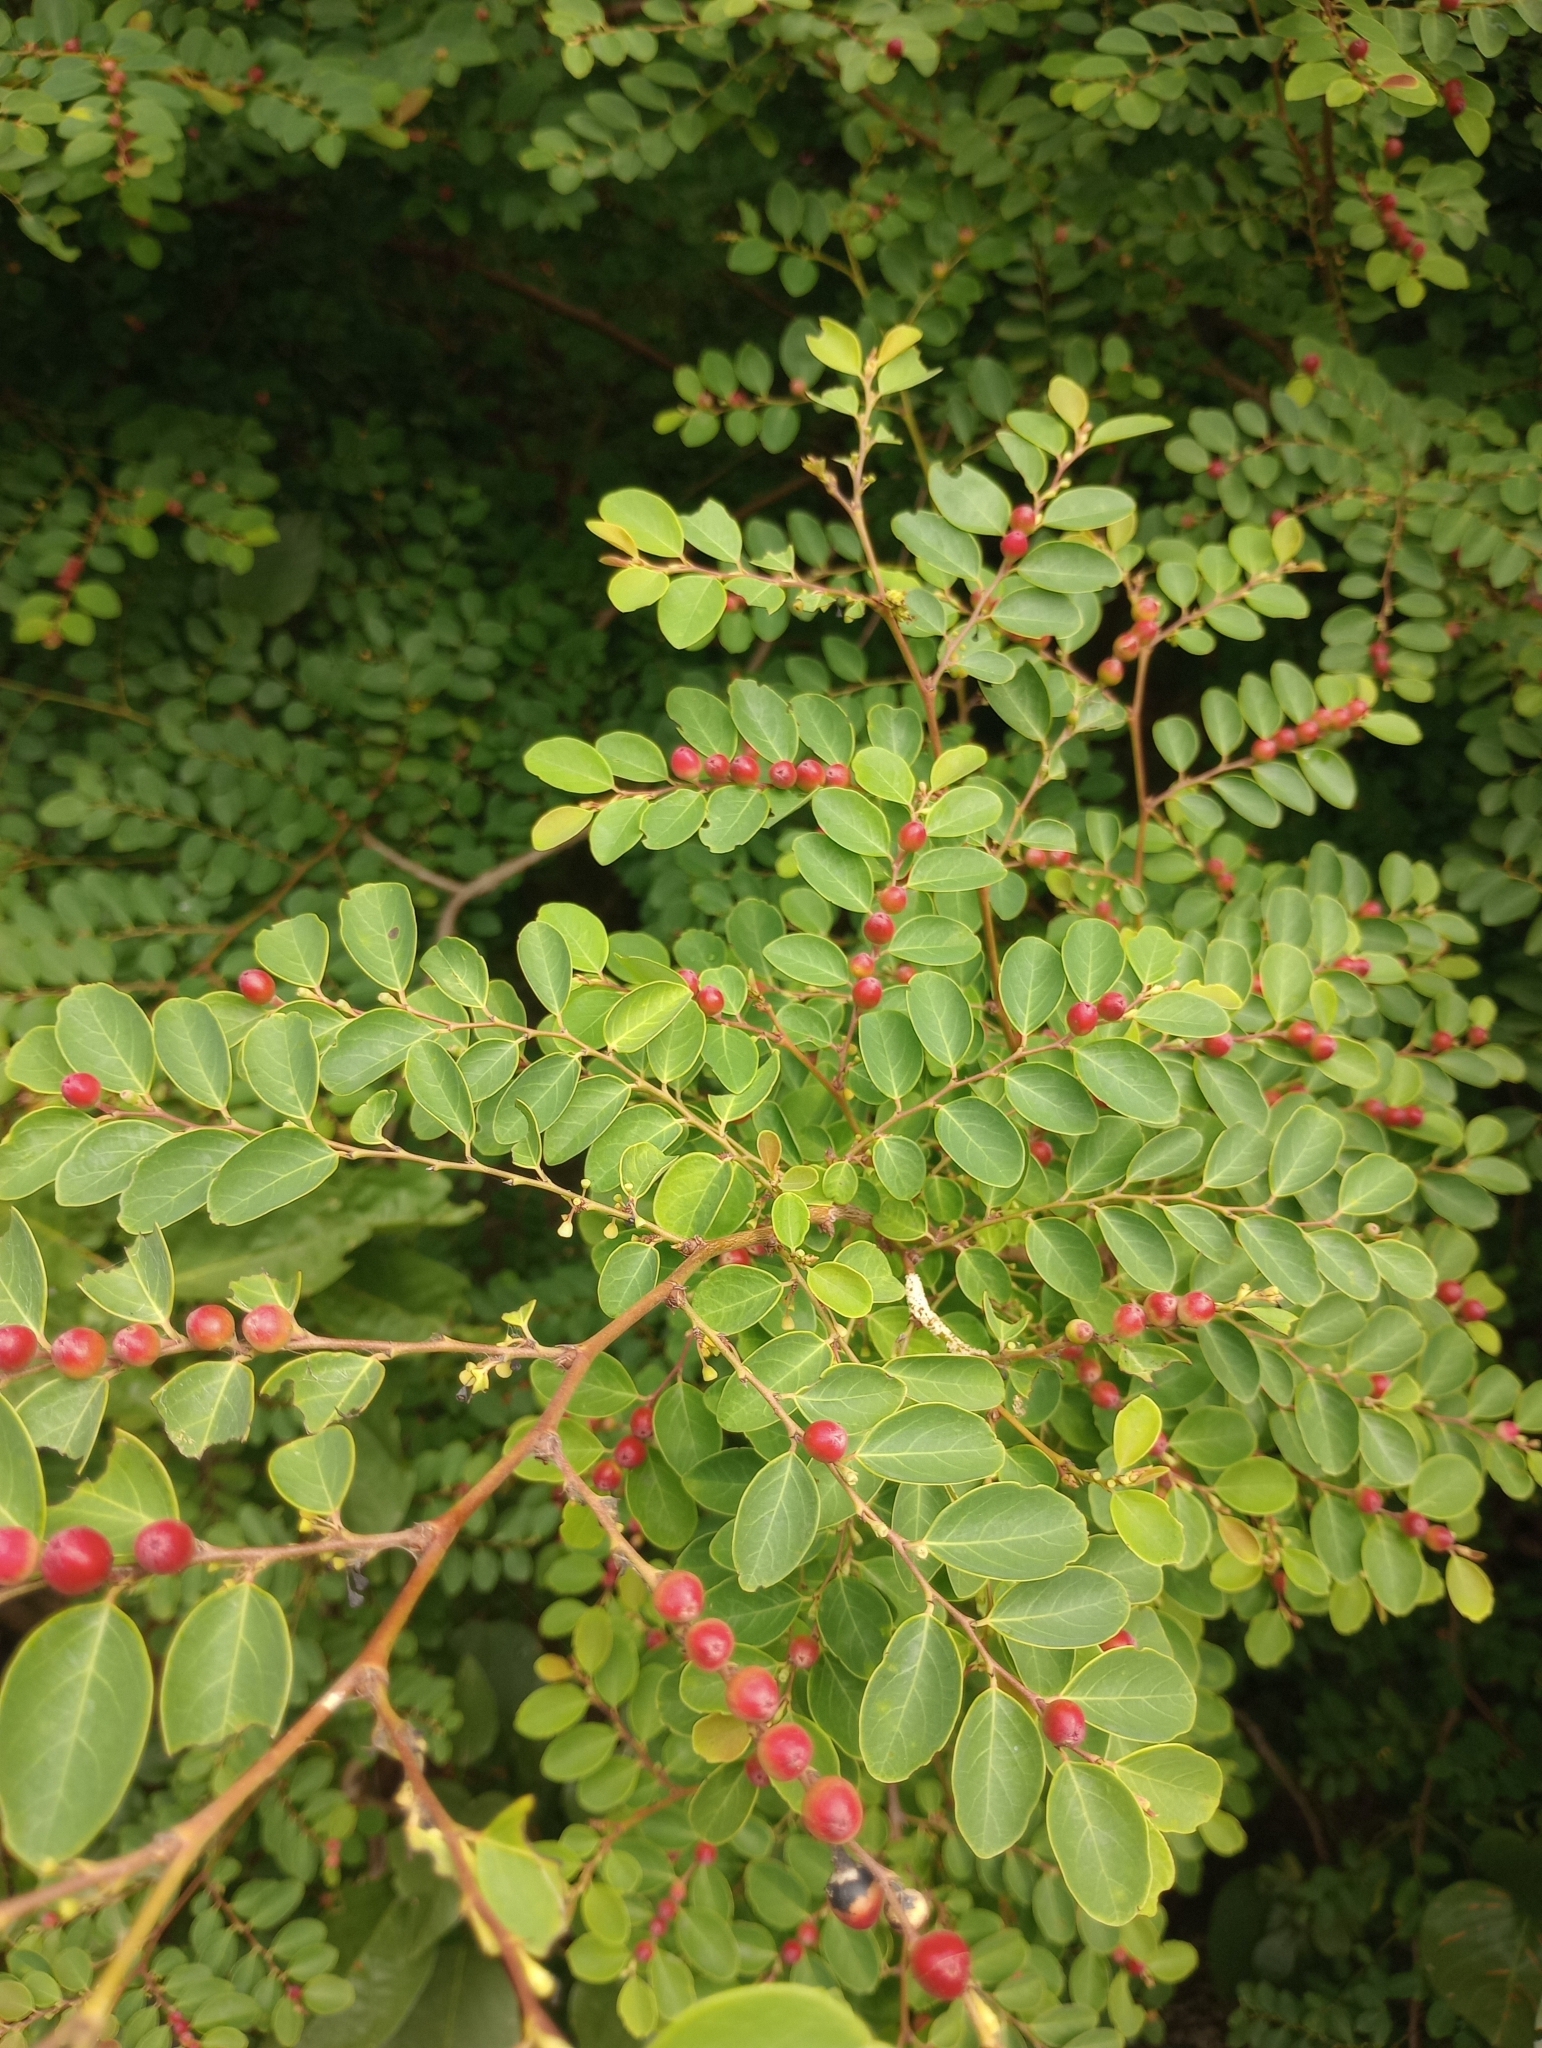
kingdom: Plantae
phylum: Tracheophyta
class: Magnoliopsida
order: Malpighiales
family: Phyllanthaceae
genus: Breynia
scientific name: Breynia vitis-idaea
